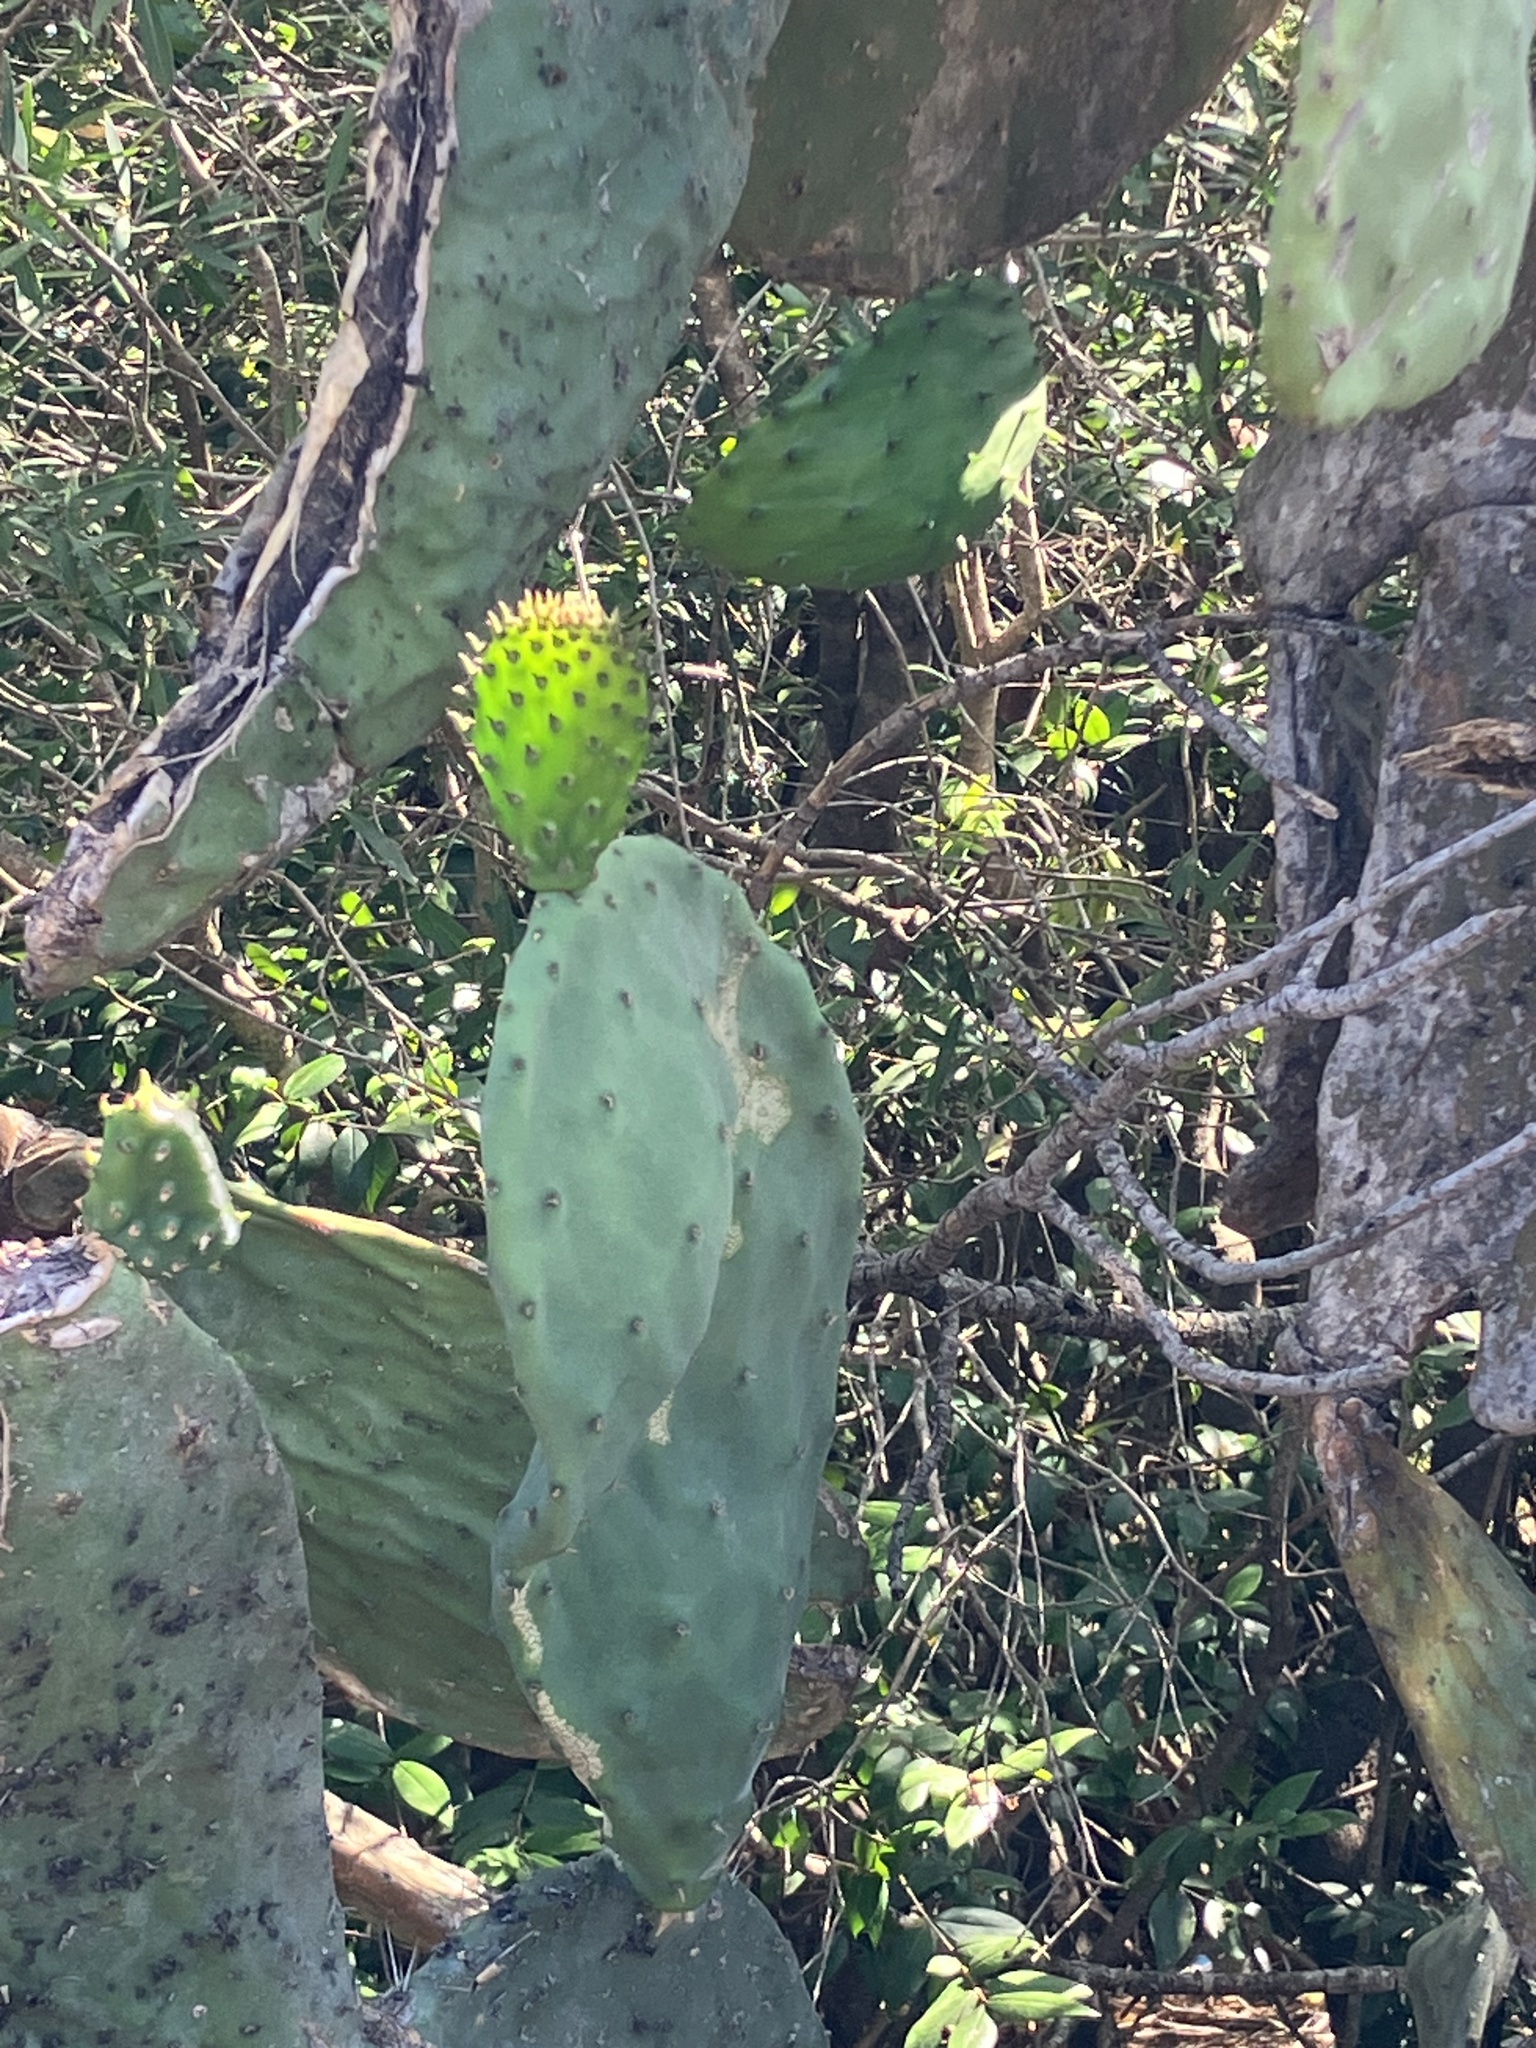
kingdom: Plantae
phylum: Tracheophyta
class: Magnoliopsida
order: Caryophyllales
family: Cactaceae
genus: Opuntia
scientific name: Opuntia ficus-indica
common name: Barbary fig
